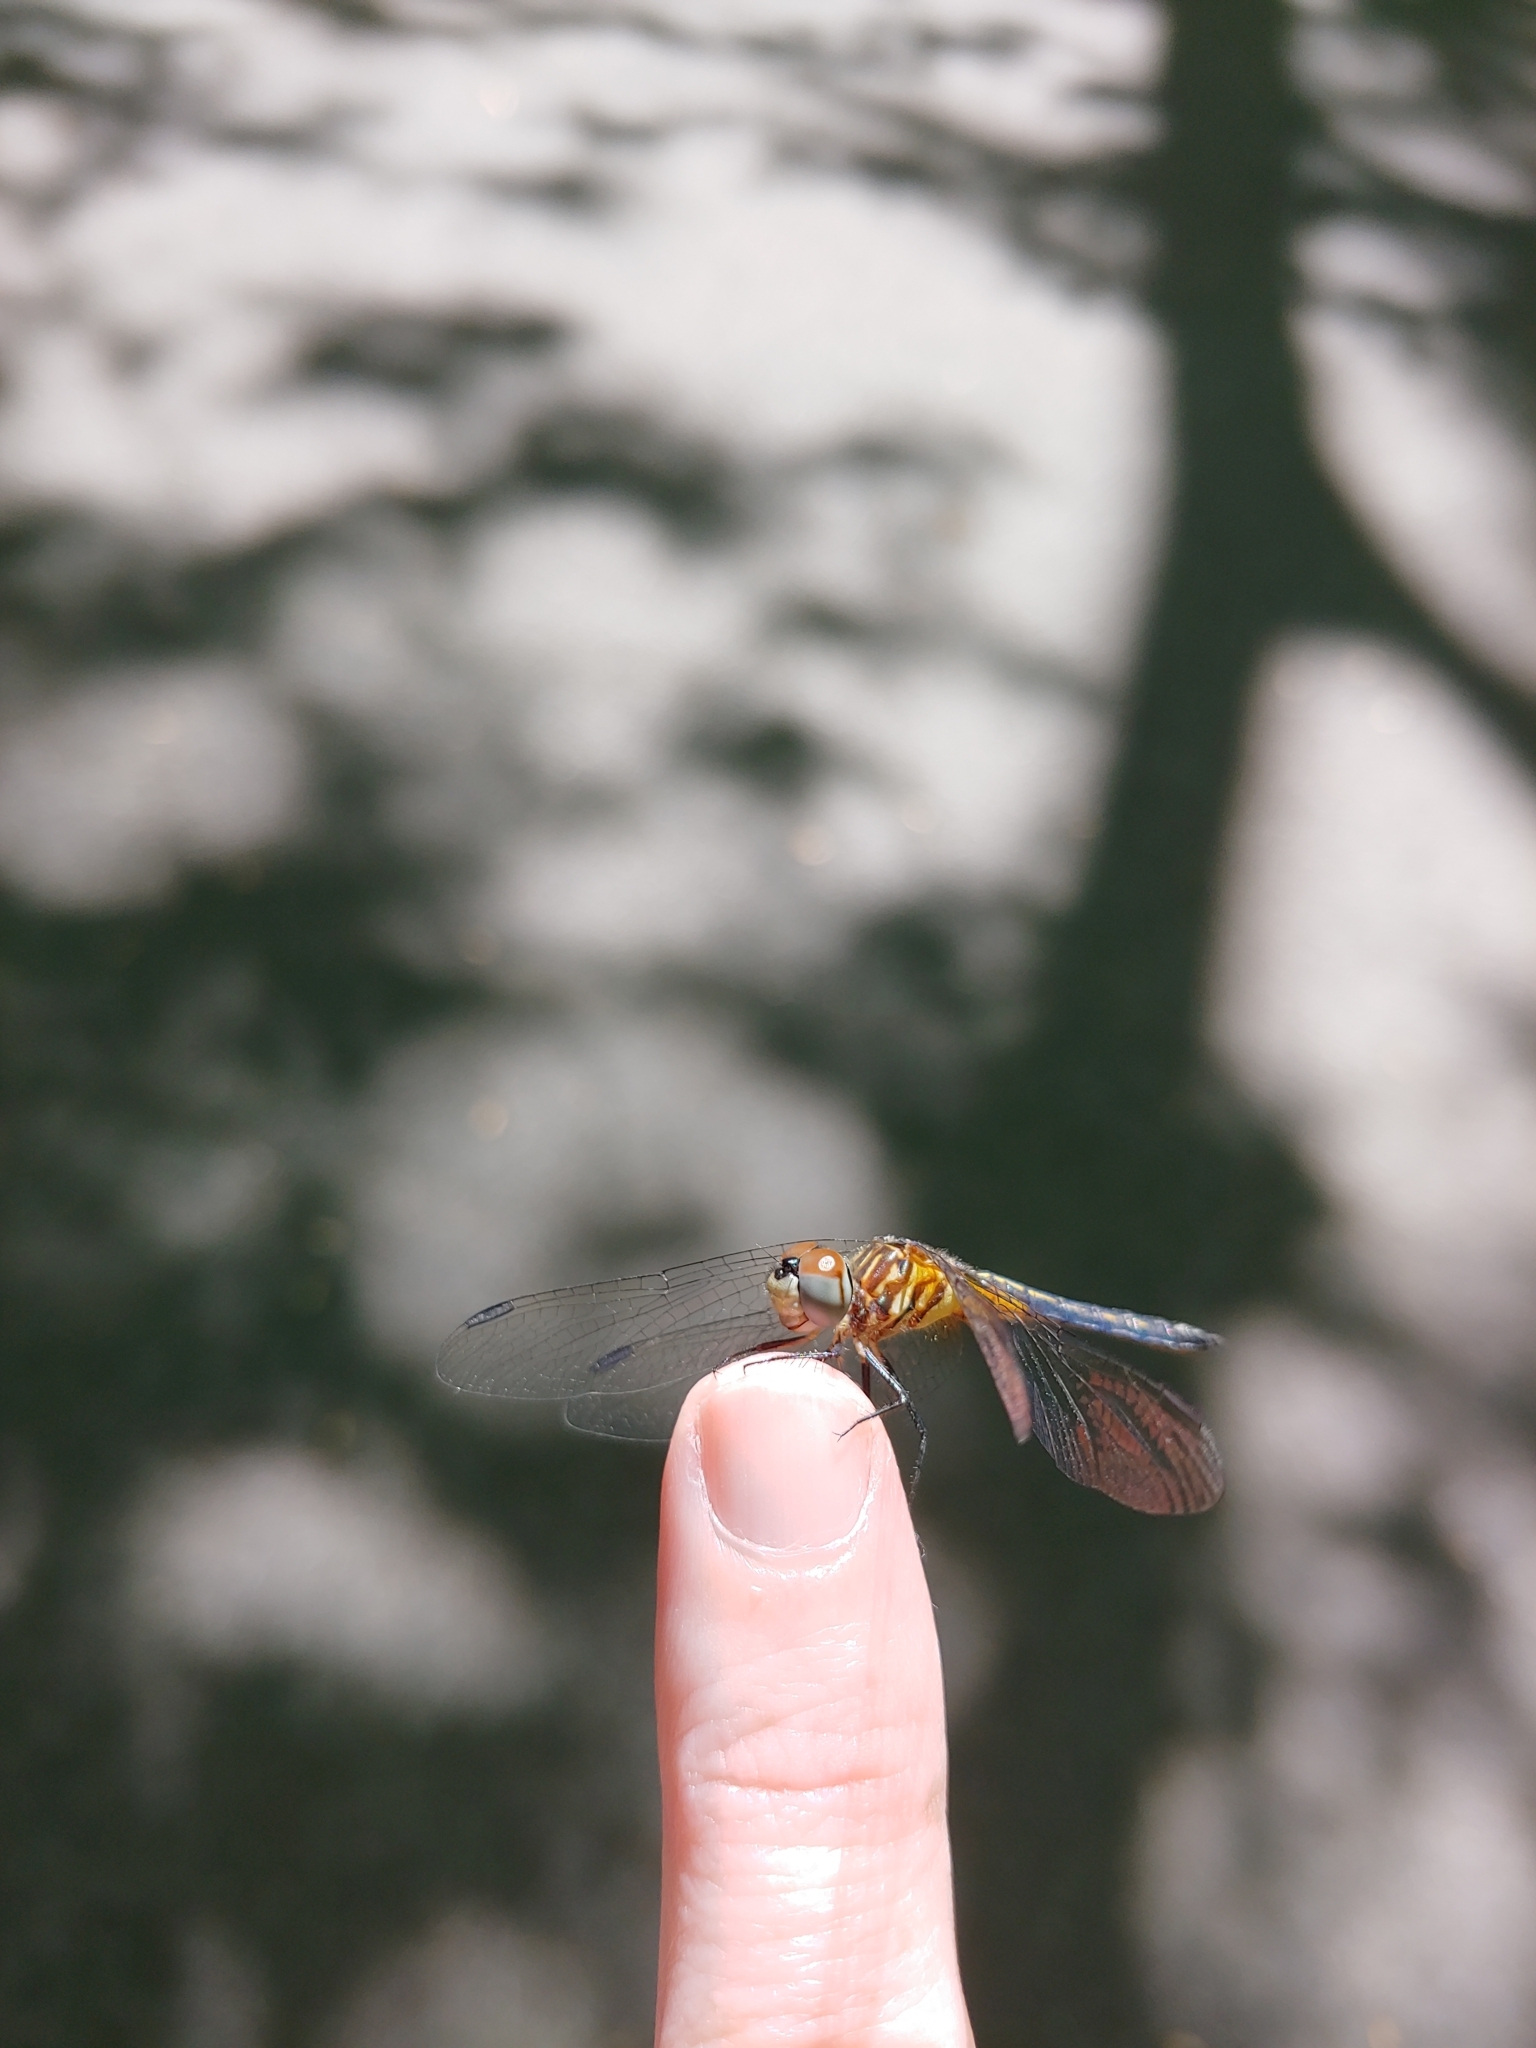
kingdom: Animalia
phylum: Arthropoda
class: Insecta
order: Odonata
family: Libellulidae
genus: Pachydiplax
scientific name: Pachydiplax longipennis
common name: Blue dasher
